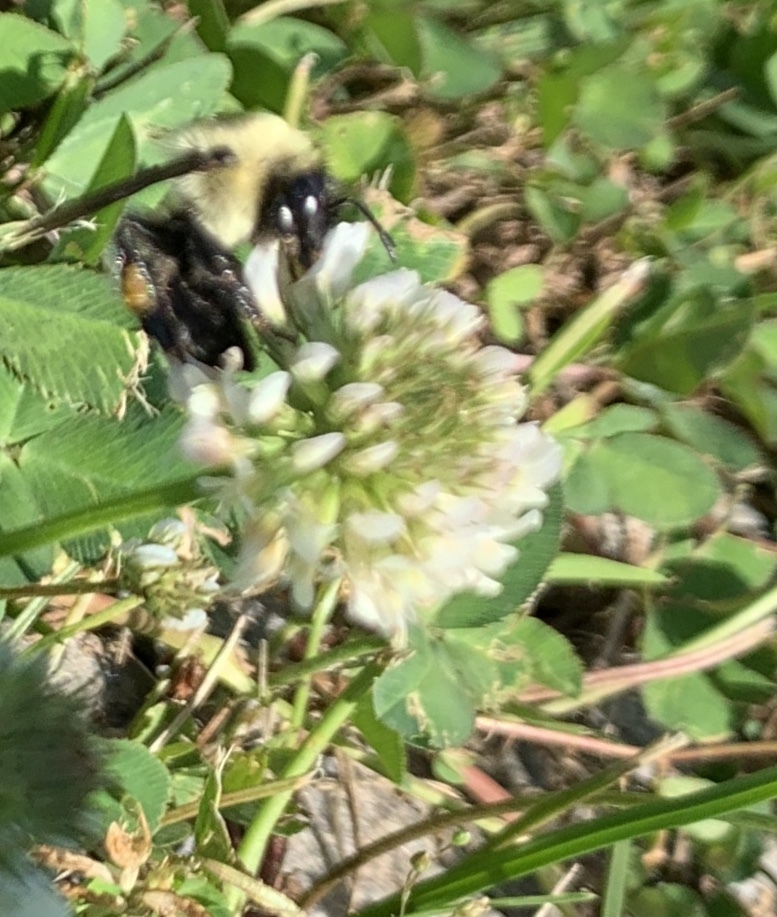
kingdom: Animalia
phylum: Arthropoda
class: Insecta
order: Hymenoptera
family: Apidae
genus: Bombus
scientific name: Bombus
